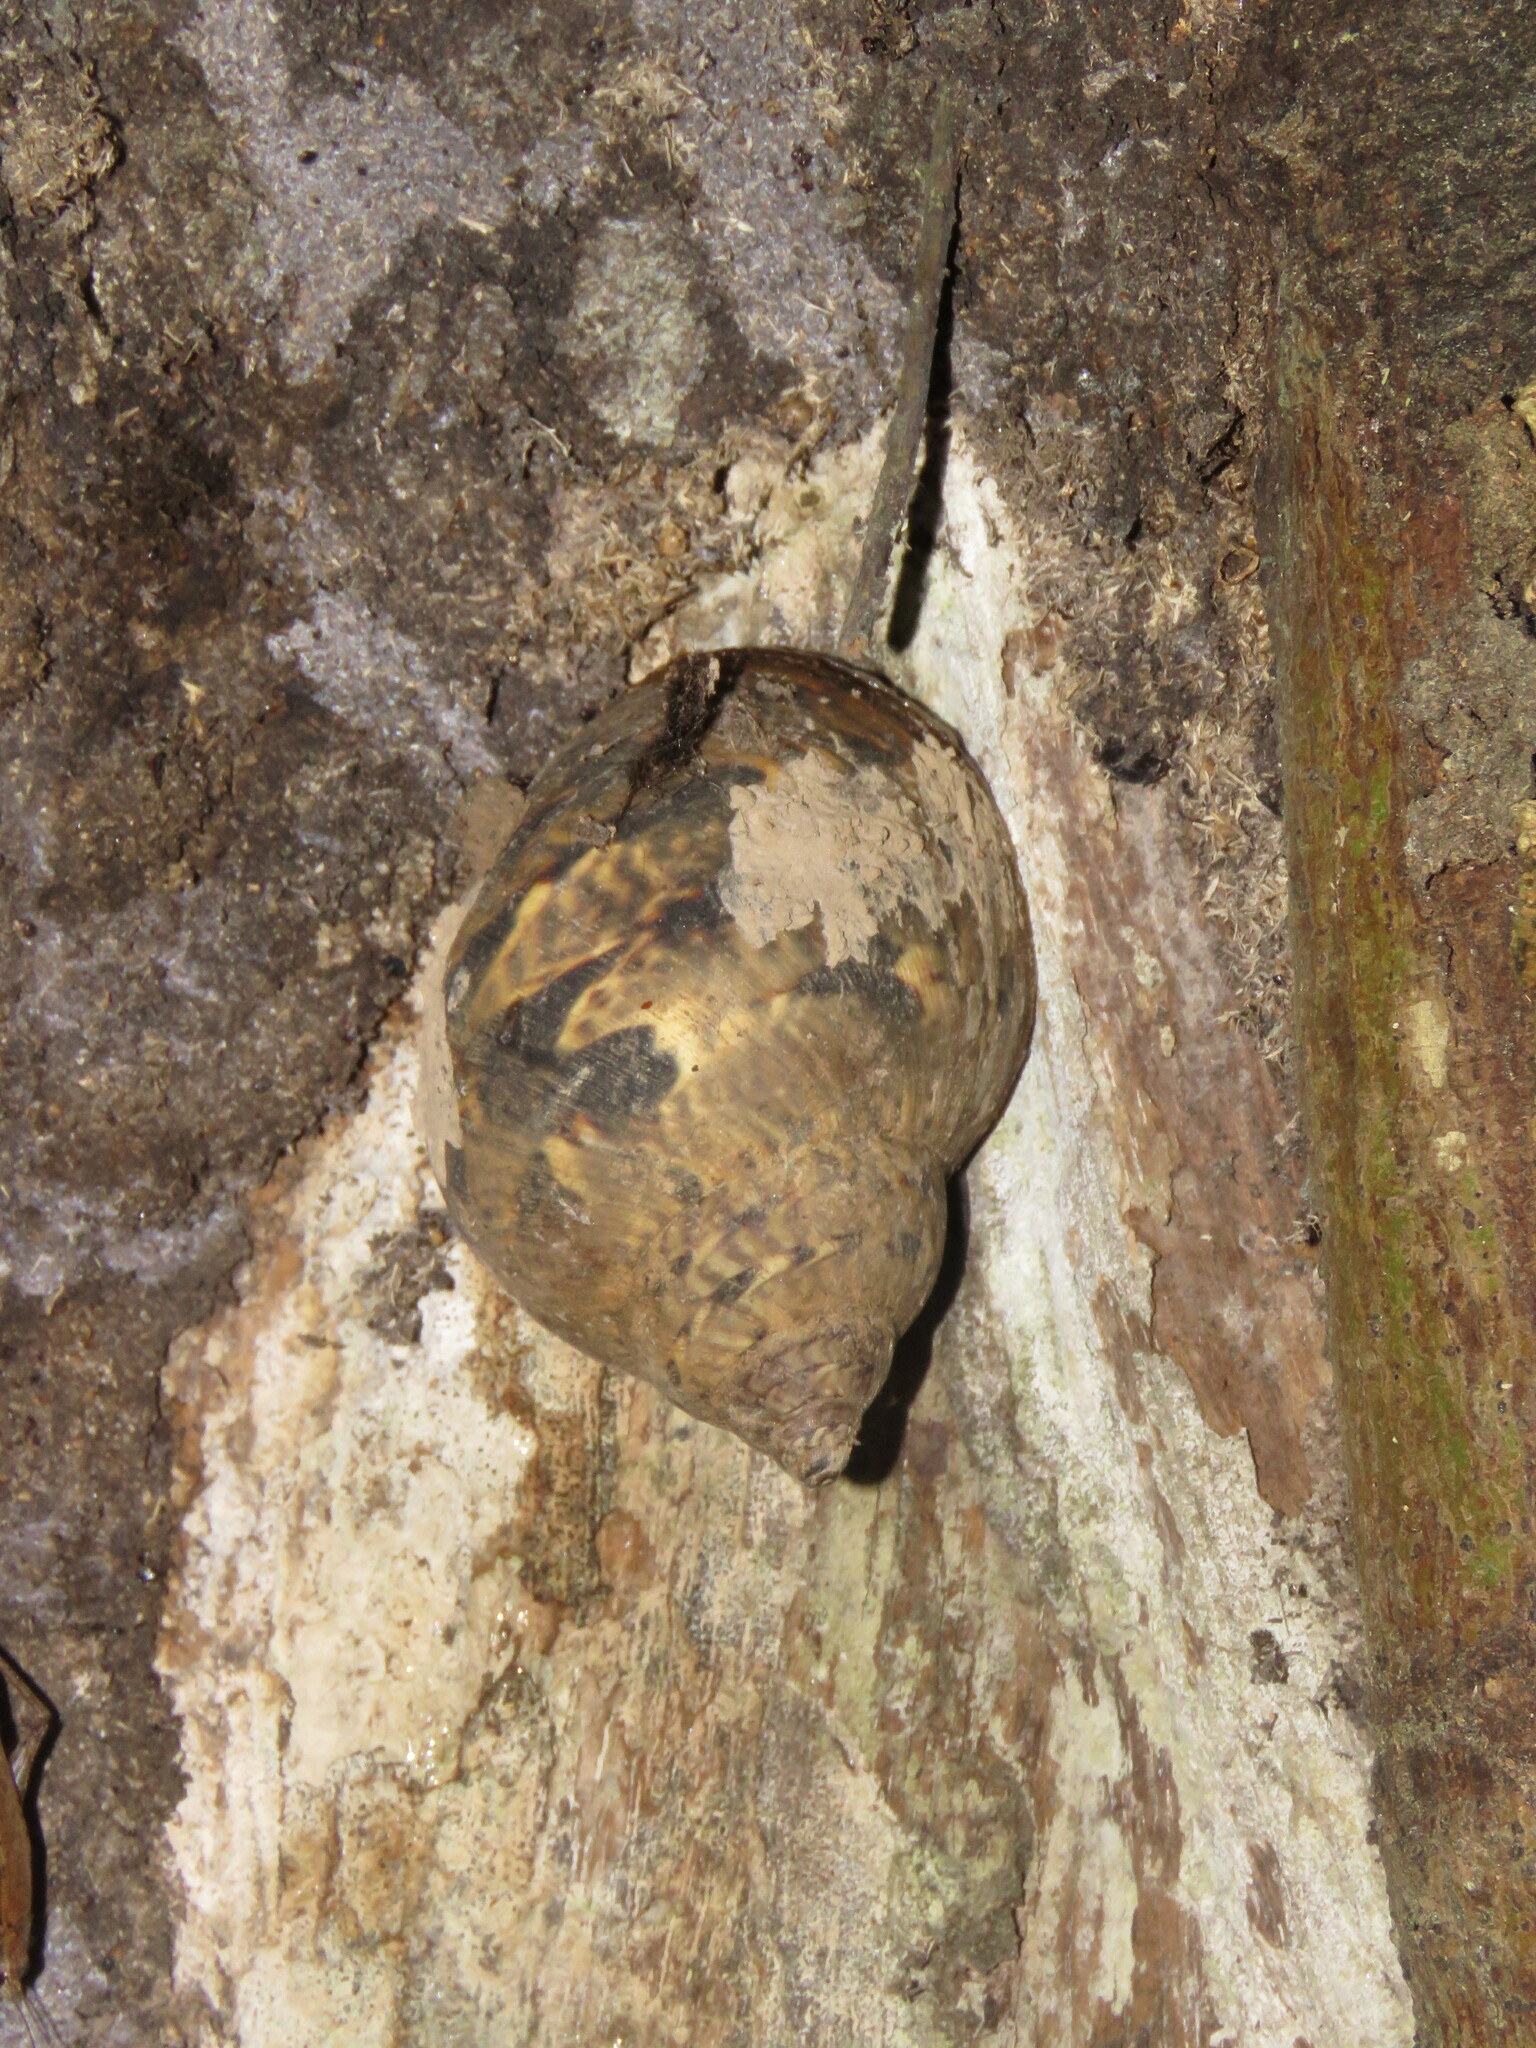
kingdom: Animalia
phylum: Mollusca
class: Gastropoda
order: Stylommatophora
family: Orthalicidae
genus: Sultana
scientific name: Sultana sultana
